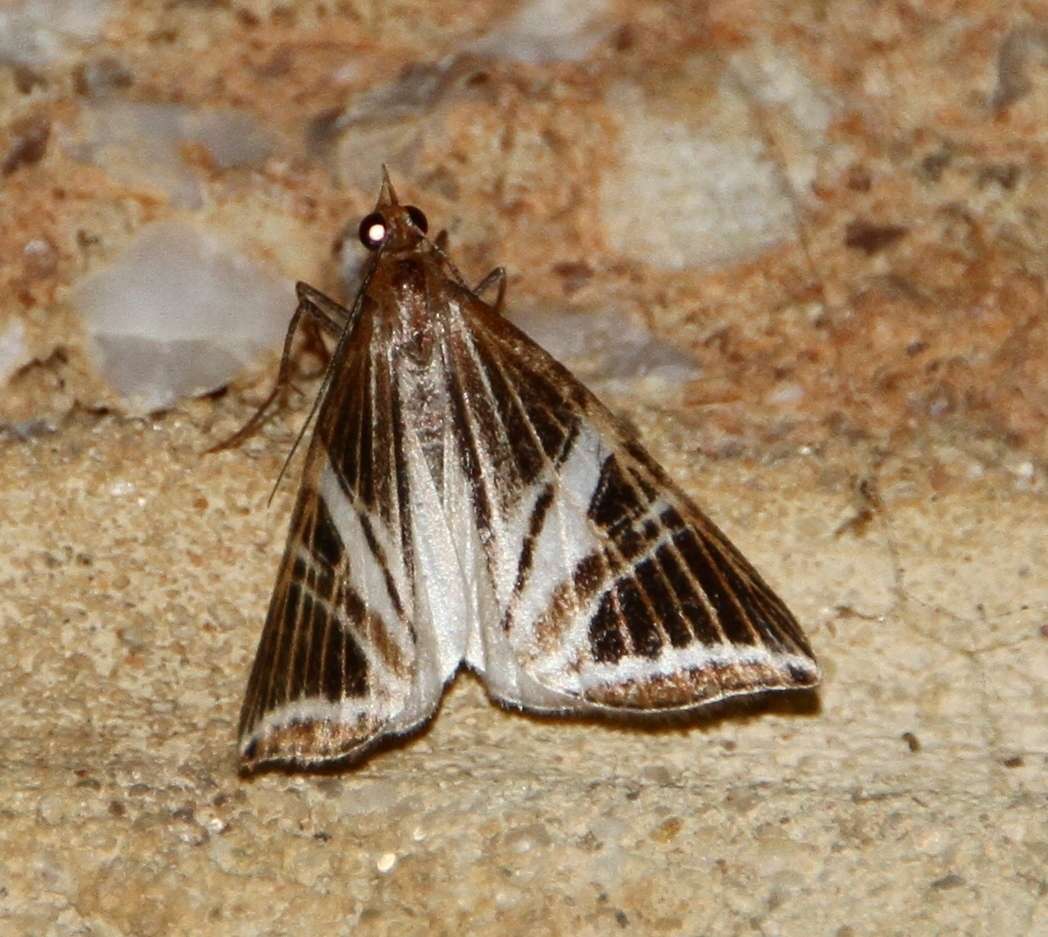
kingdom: Animalia
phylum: Arthropoda
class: Insecta
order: Lepidoptera
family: Geometridae
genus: Phrataria
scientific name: Phrataria transcissata
